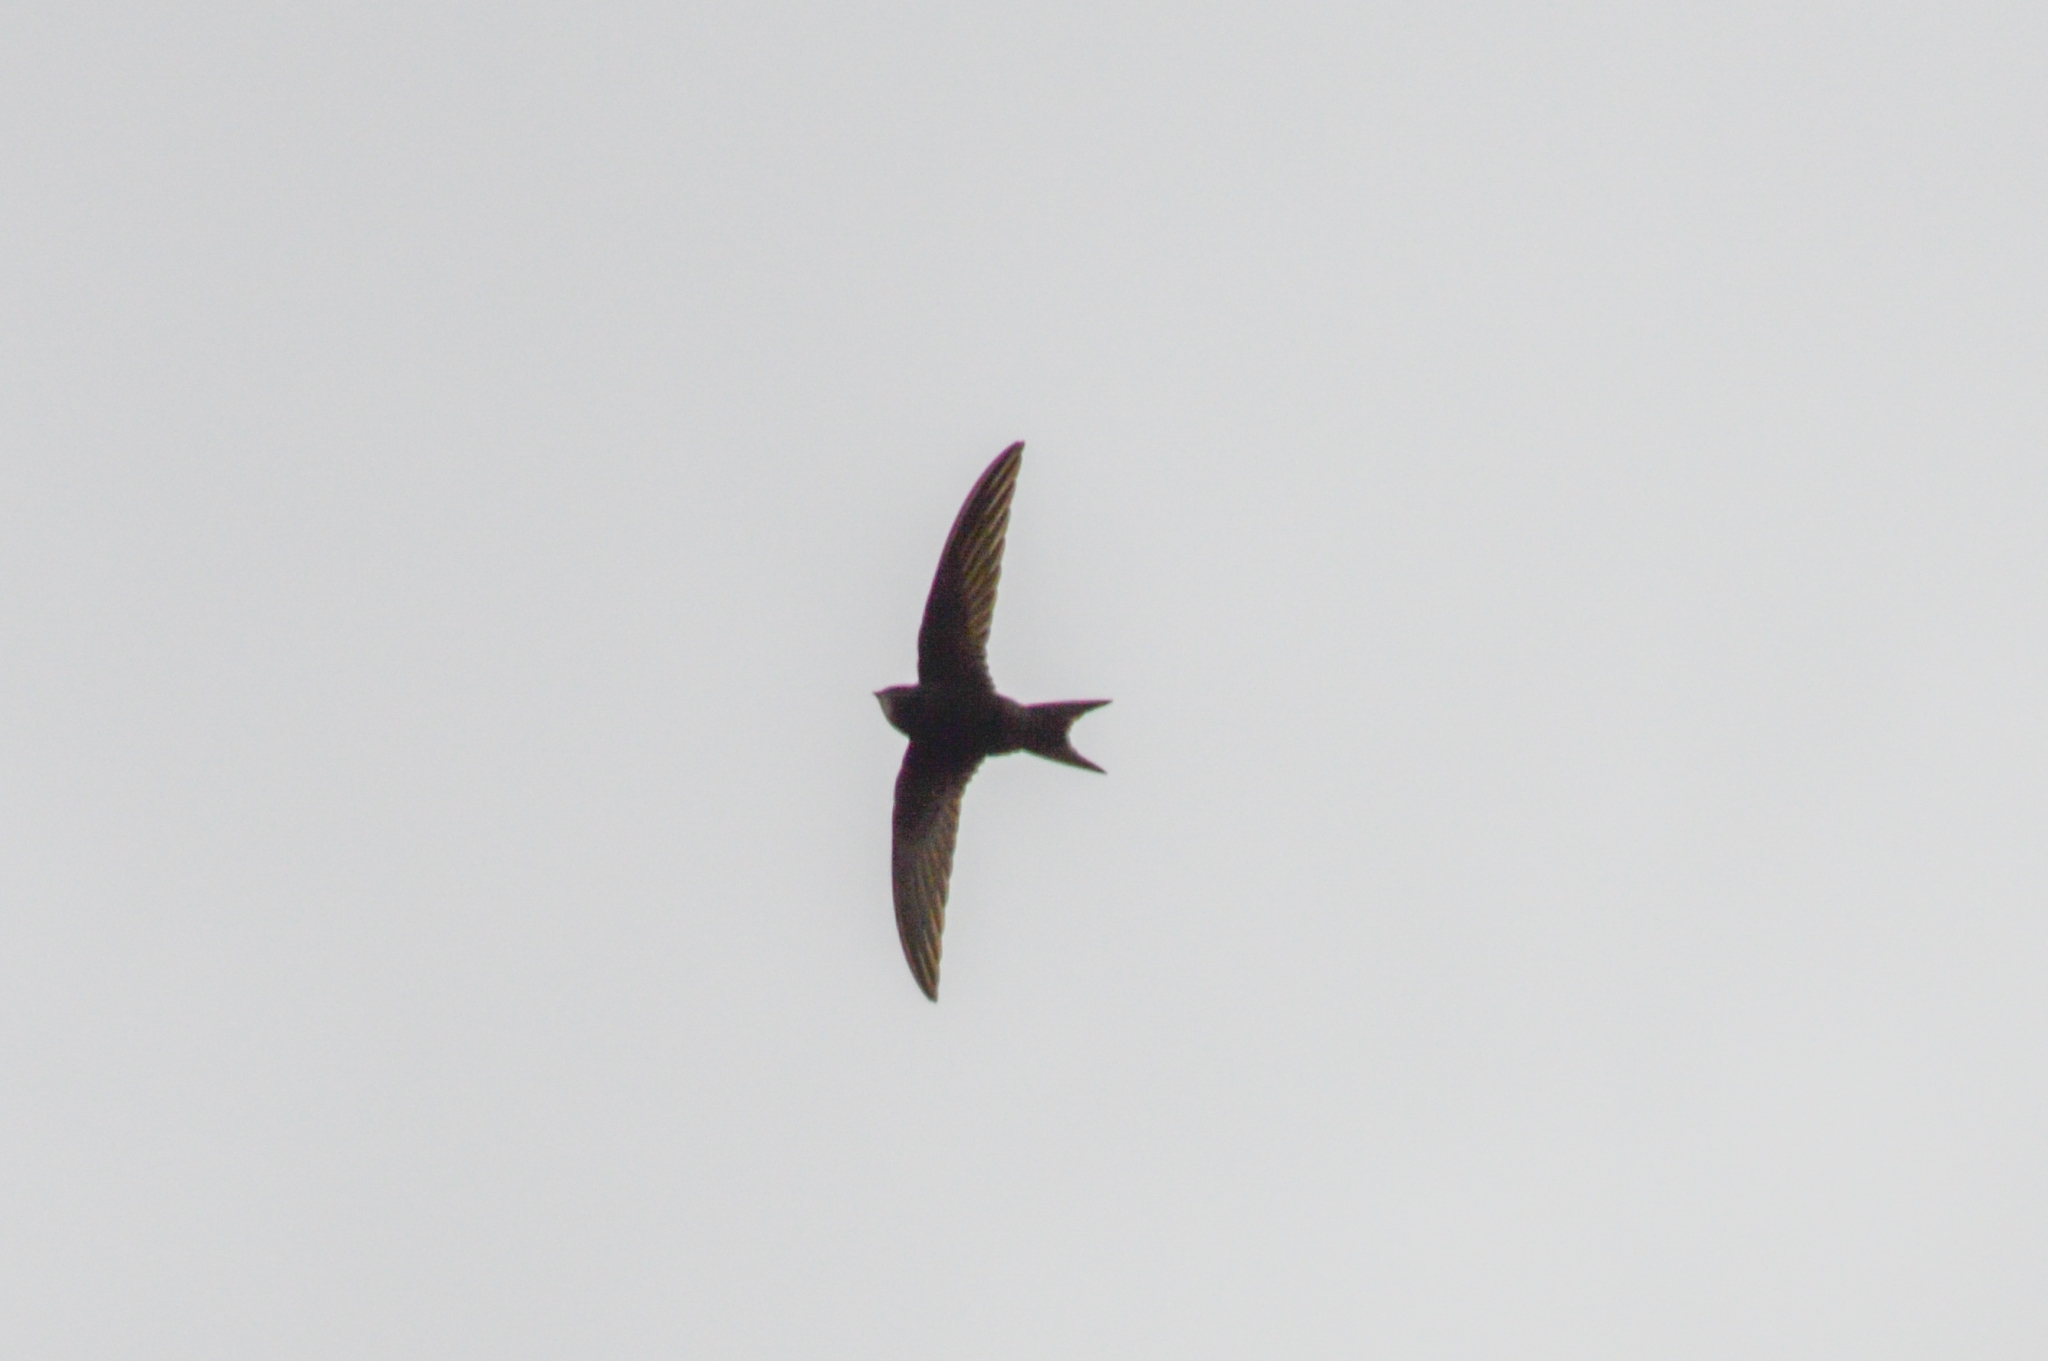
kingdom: Animalia
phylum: Chordata
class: Aves
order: Apodiformes
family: Apodidae
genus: Apus
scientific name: Apus apus
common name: Common swift
